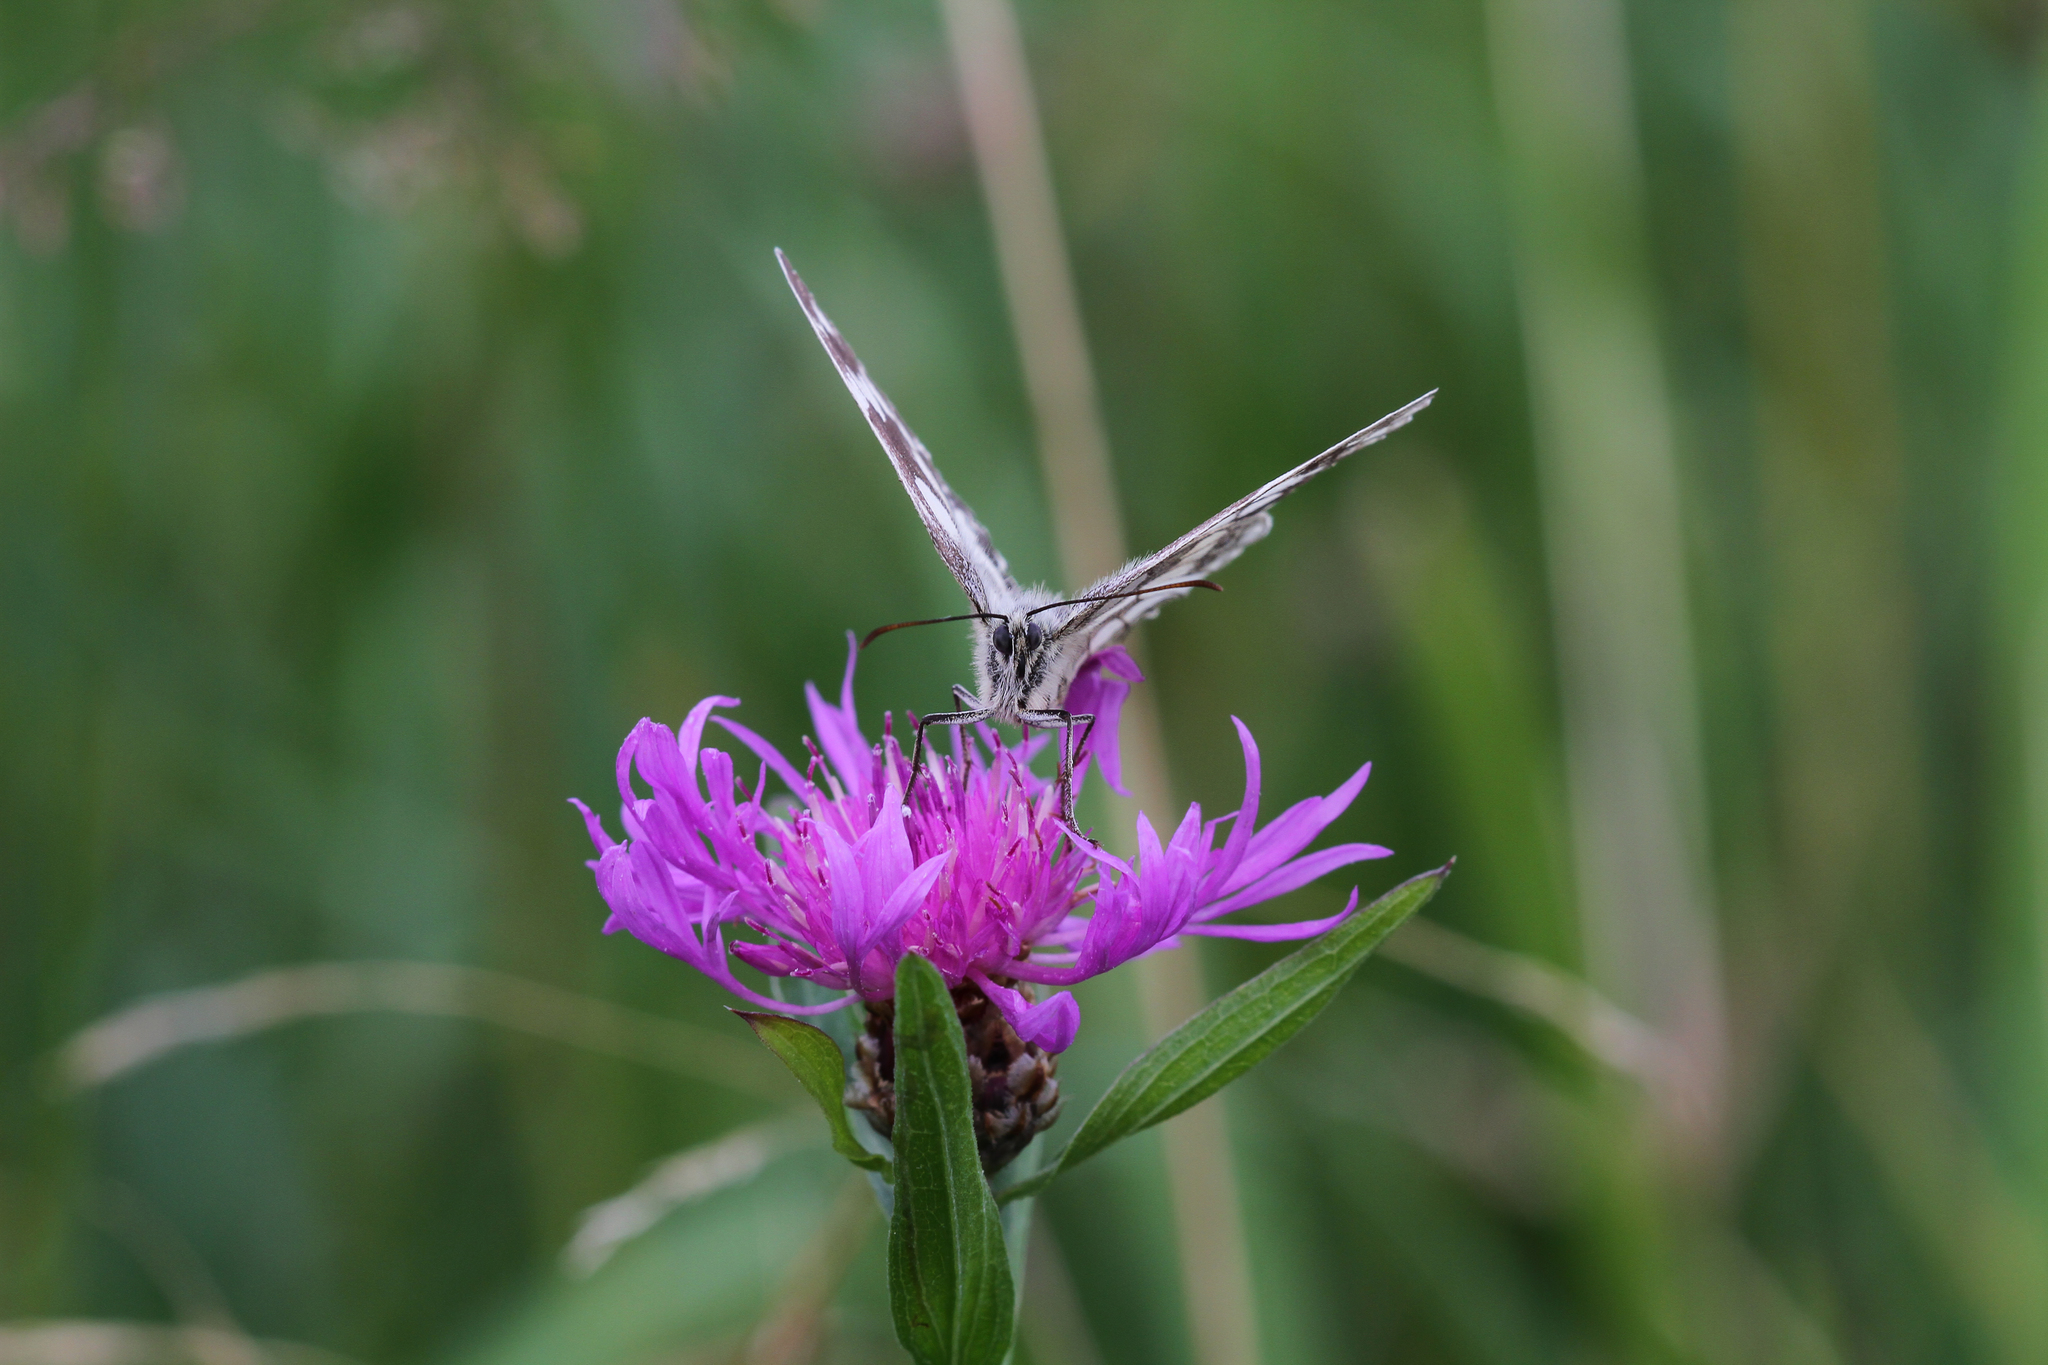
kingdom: Animalia
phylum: Arthropoda
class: Insecta
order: Lepidoptera
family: Nymphalidae
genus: Melanargia
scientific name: Melanargia galathea
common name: Marbled white
